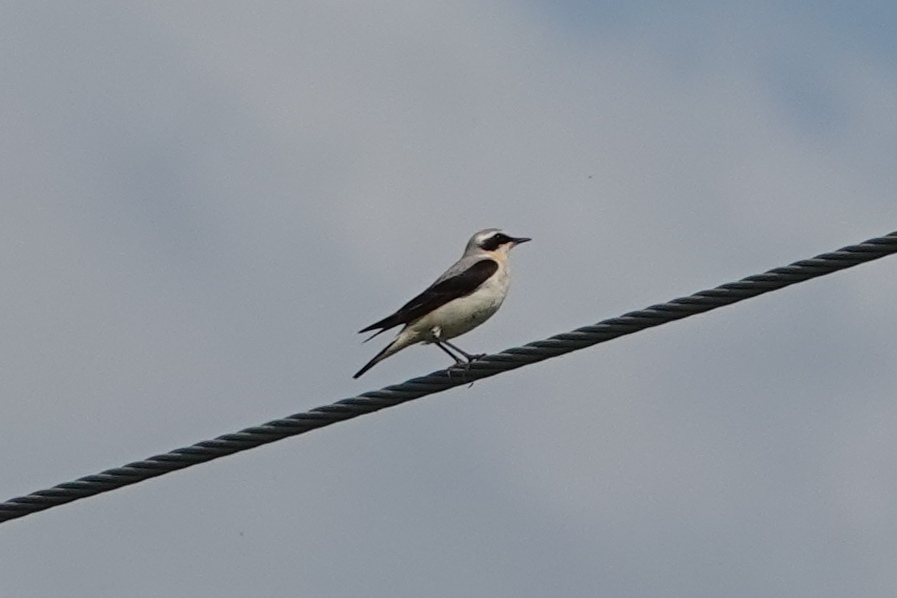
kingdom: Animalia
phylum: Chordata
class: Aves
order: Passeriformes
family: Muscicapidae
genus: Oenanthe
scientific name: Oenanthe oenanthe
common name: Northern wheatear
